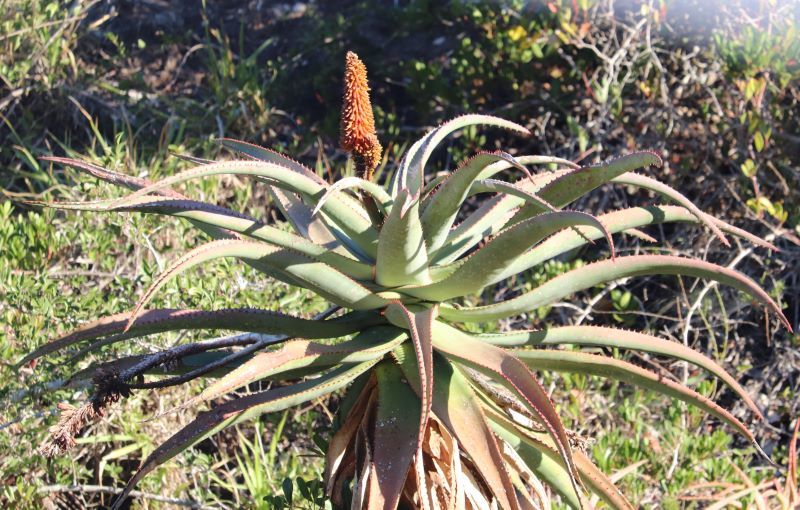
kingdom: Plantae
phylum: Tracheophyta
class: Liliopsida
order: Asparagales
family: Asphodelaceae
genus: Aloe
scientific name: Aloe africana
